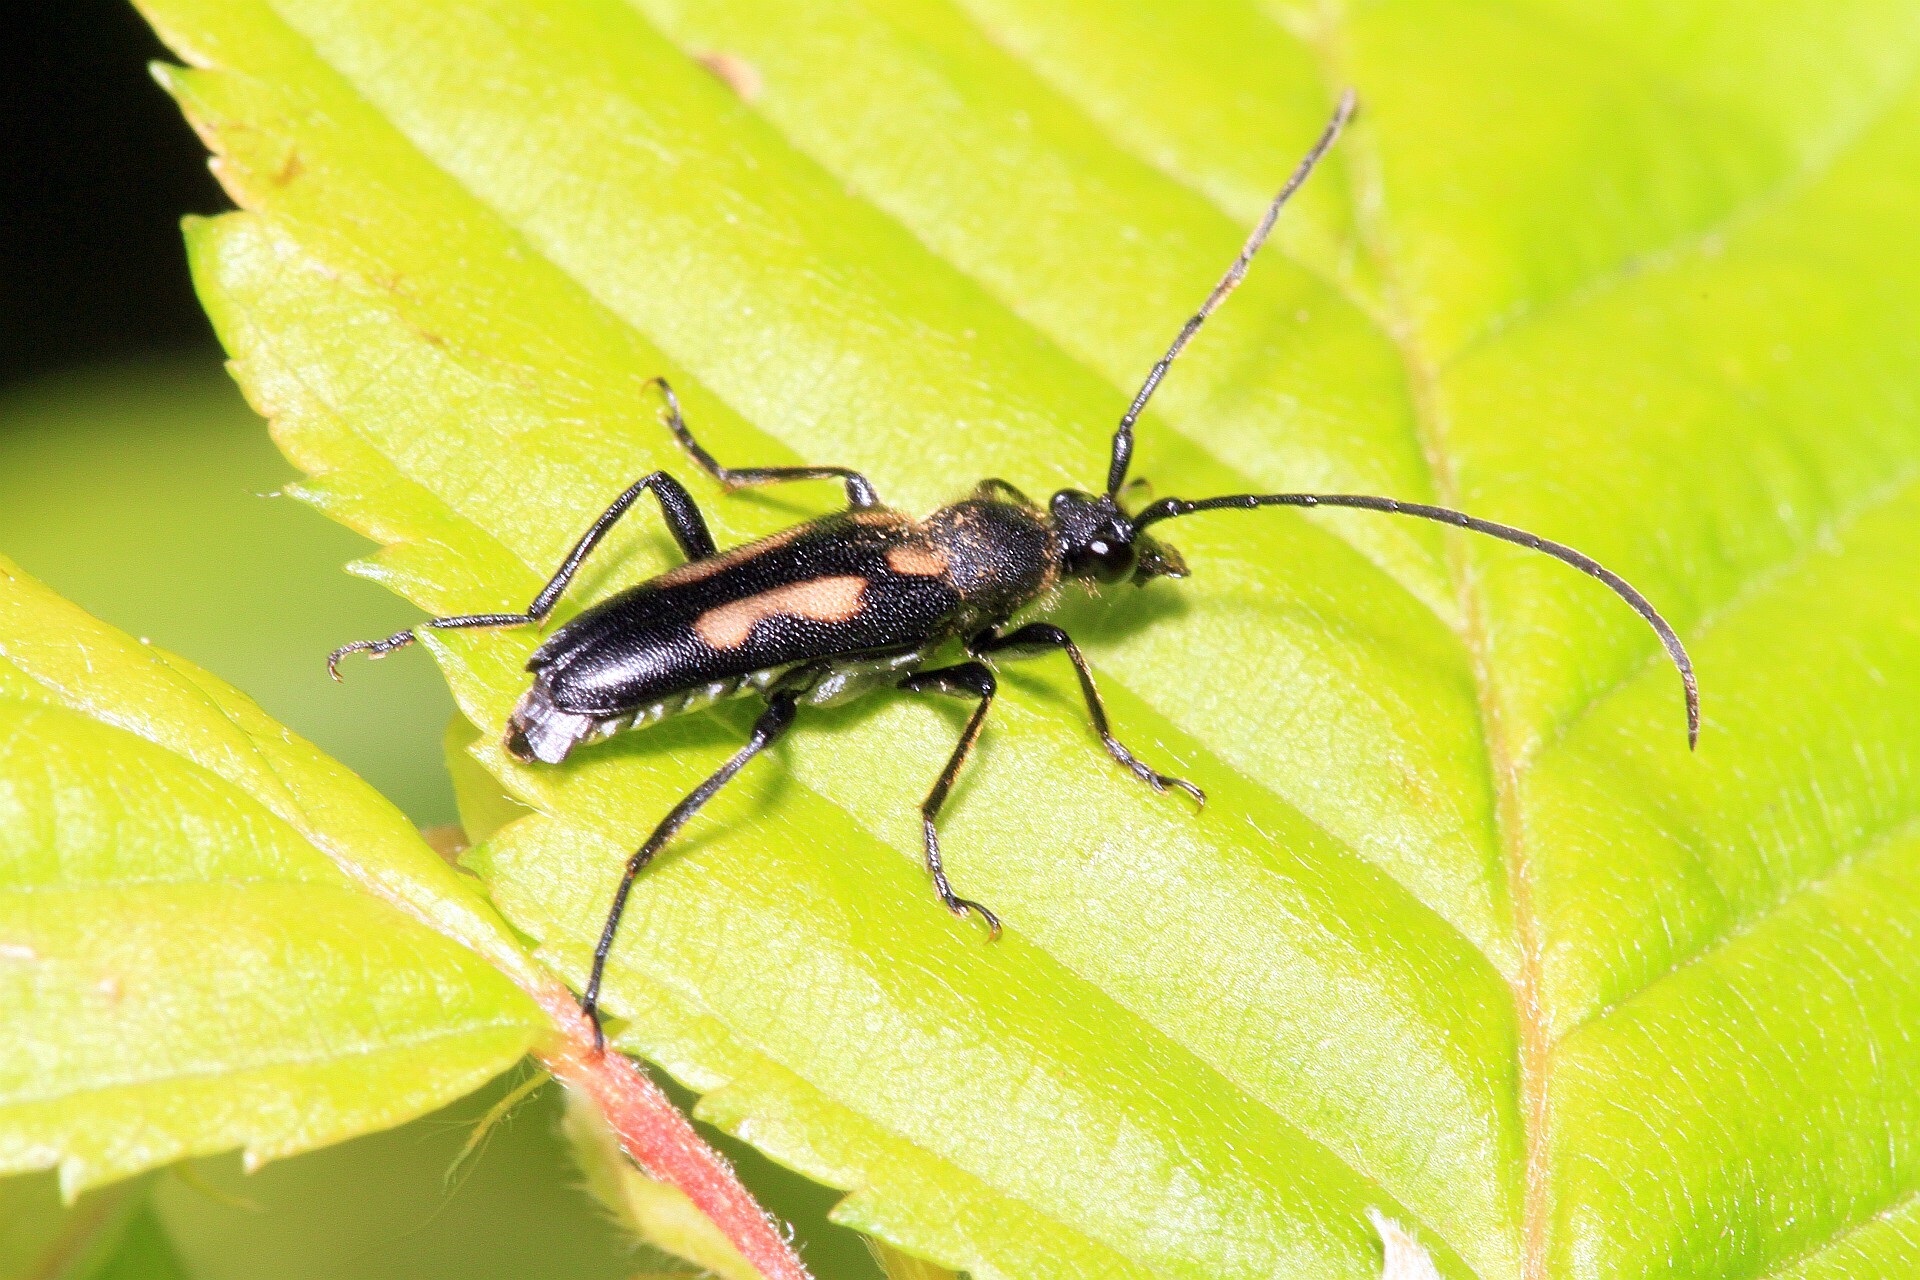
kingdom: Animalia
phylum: Arthropoda
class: Insecta
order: Coleoptera
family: Cerambycidae
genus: Anoplodera
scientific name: Anoplodera sexguttata
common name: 6 spotted longhorn
